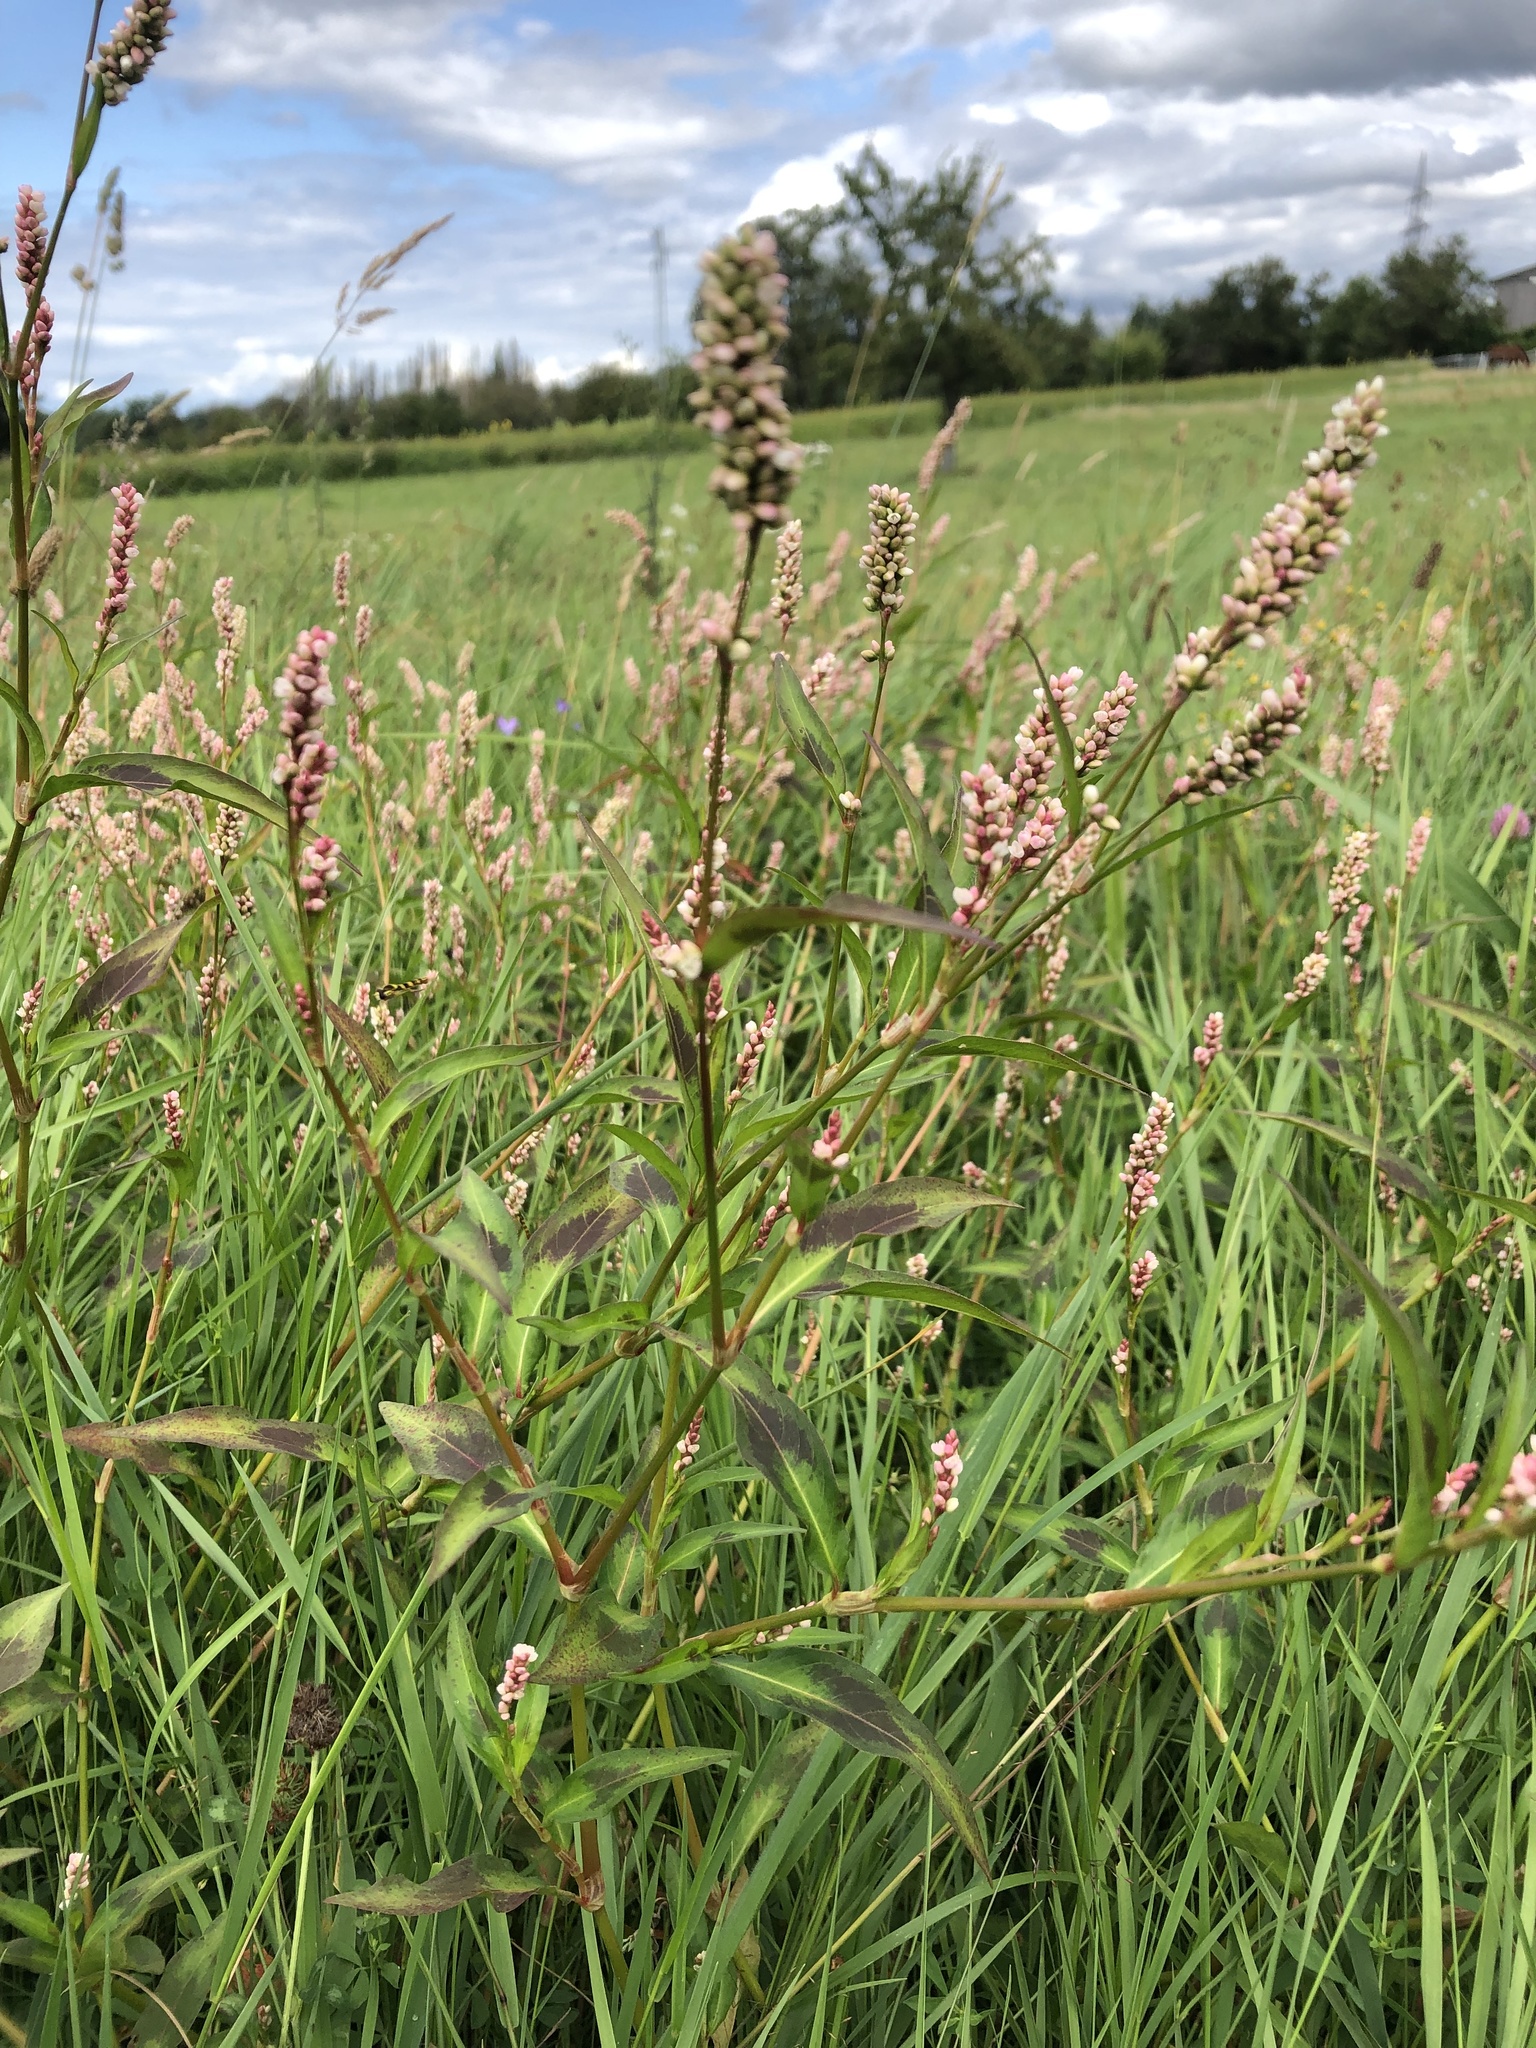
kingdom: Plantae
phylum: Tracheophyta
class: Magnoliopsida
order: Caryophyllales
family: Polygonaceae
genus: Persicaria
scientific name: Persicaria maculosa
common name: Redshank
